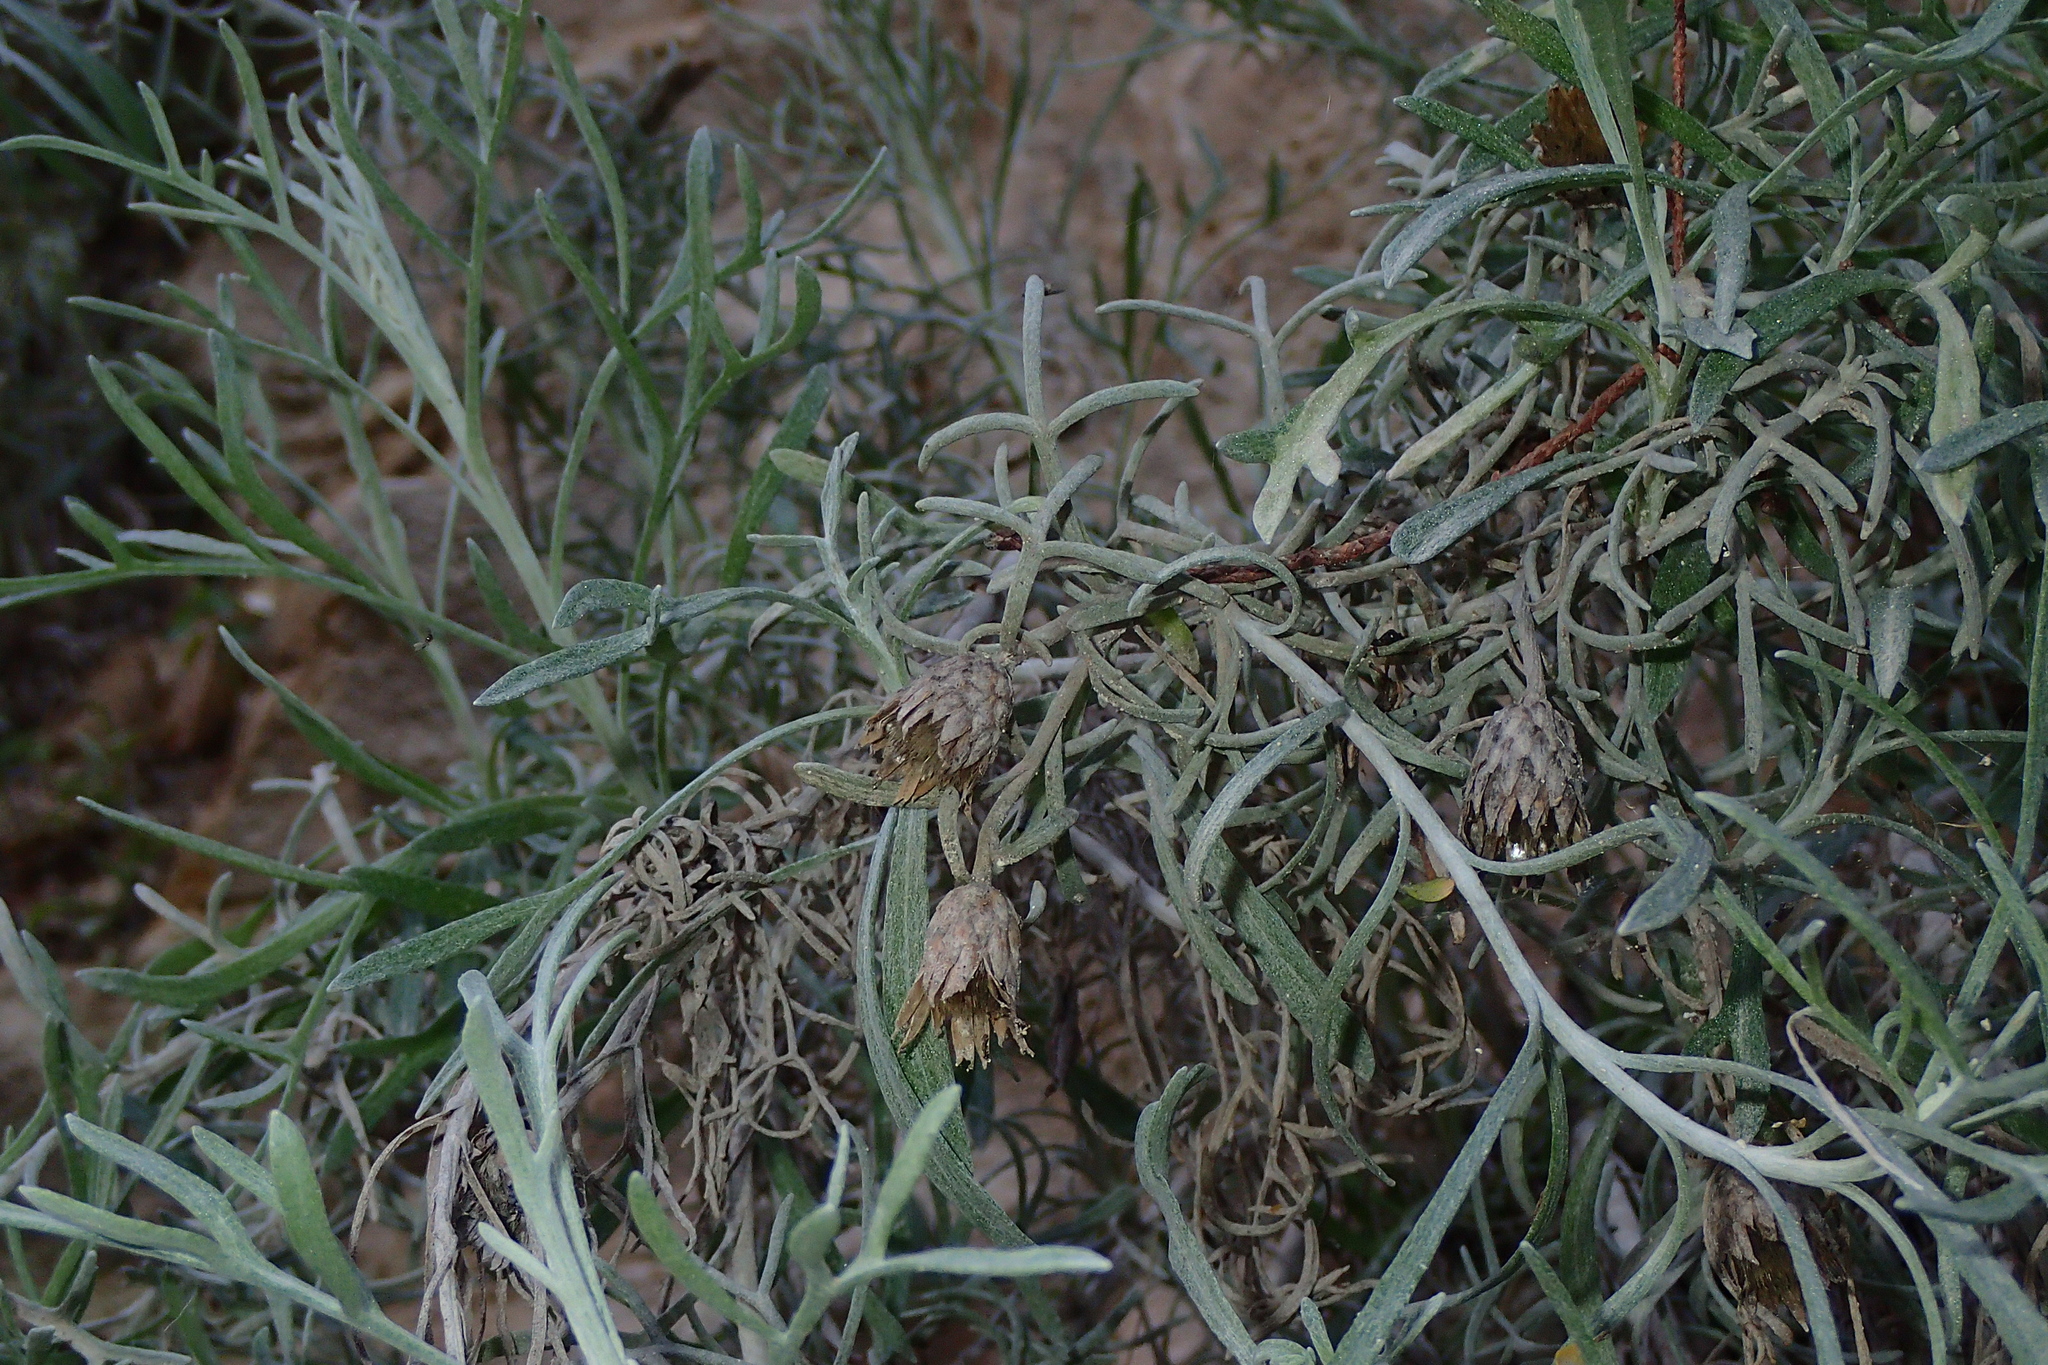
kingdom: Plantae
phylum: Tracheophyta
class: Magnoliopsida
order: Asterales
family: Asteraceae
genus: Centaurea
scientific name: Centaurea akamantis
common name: Akamas centaury
